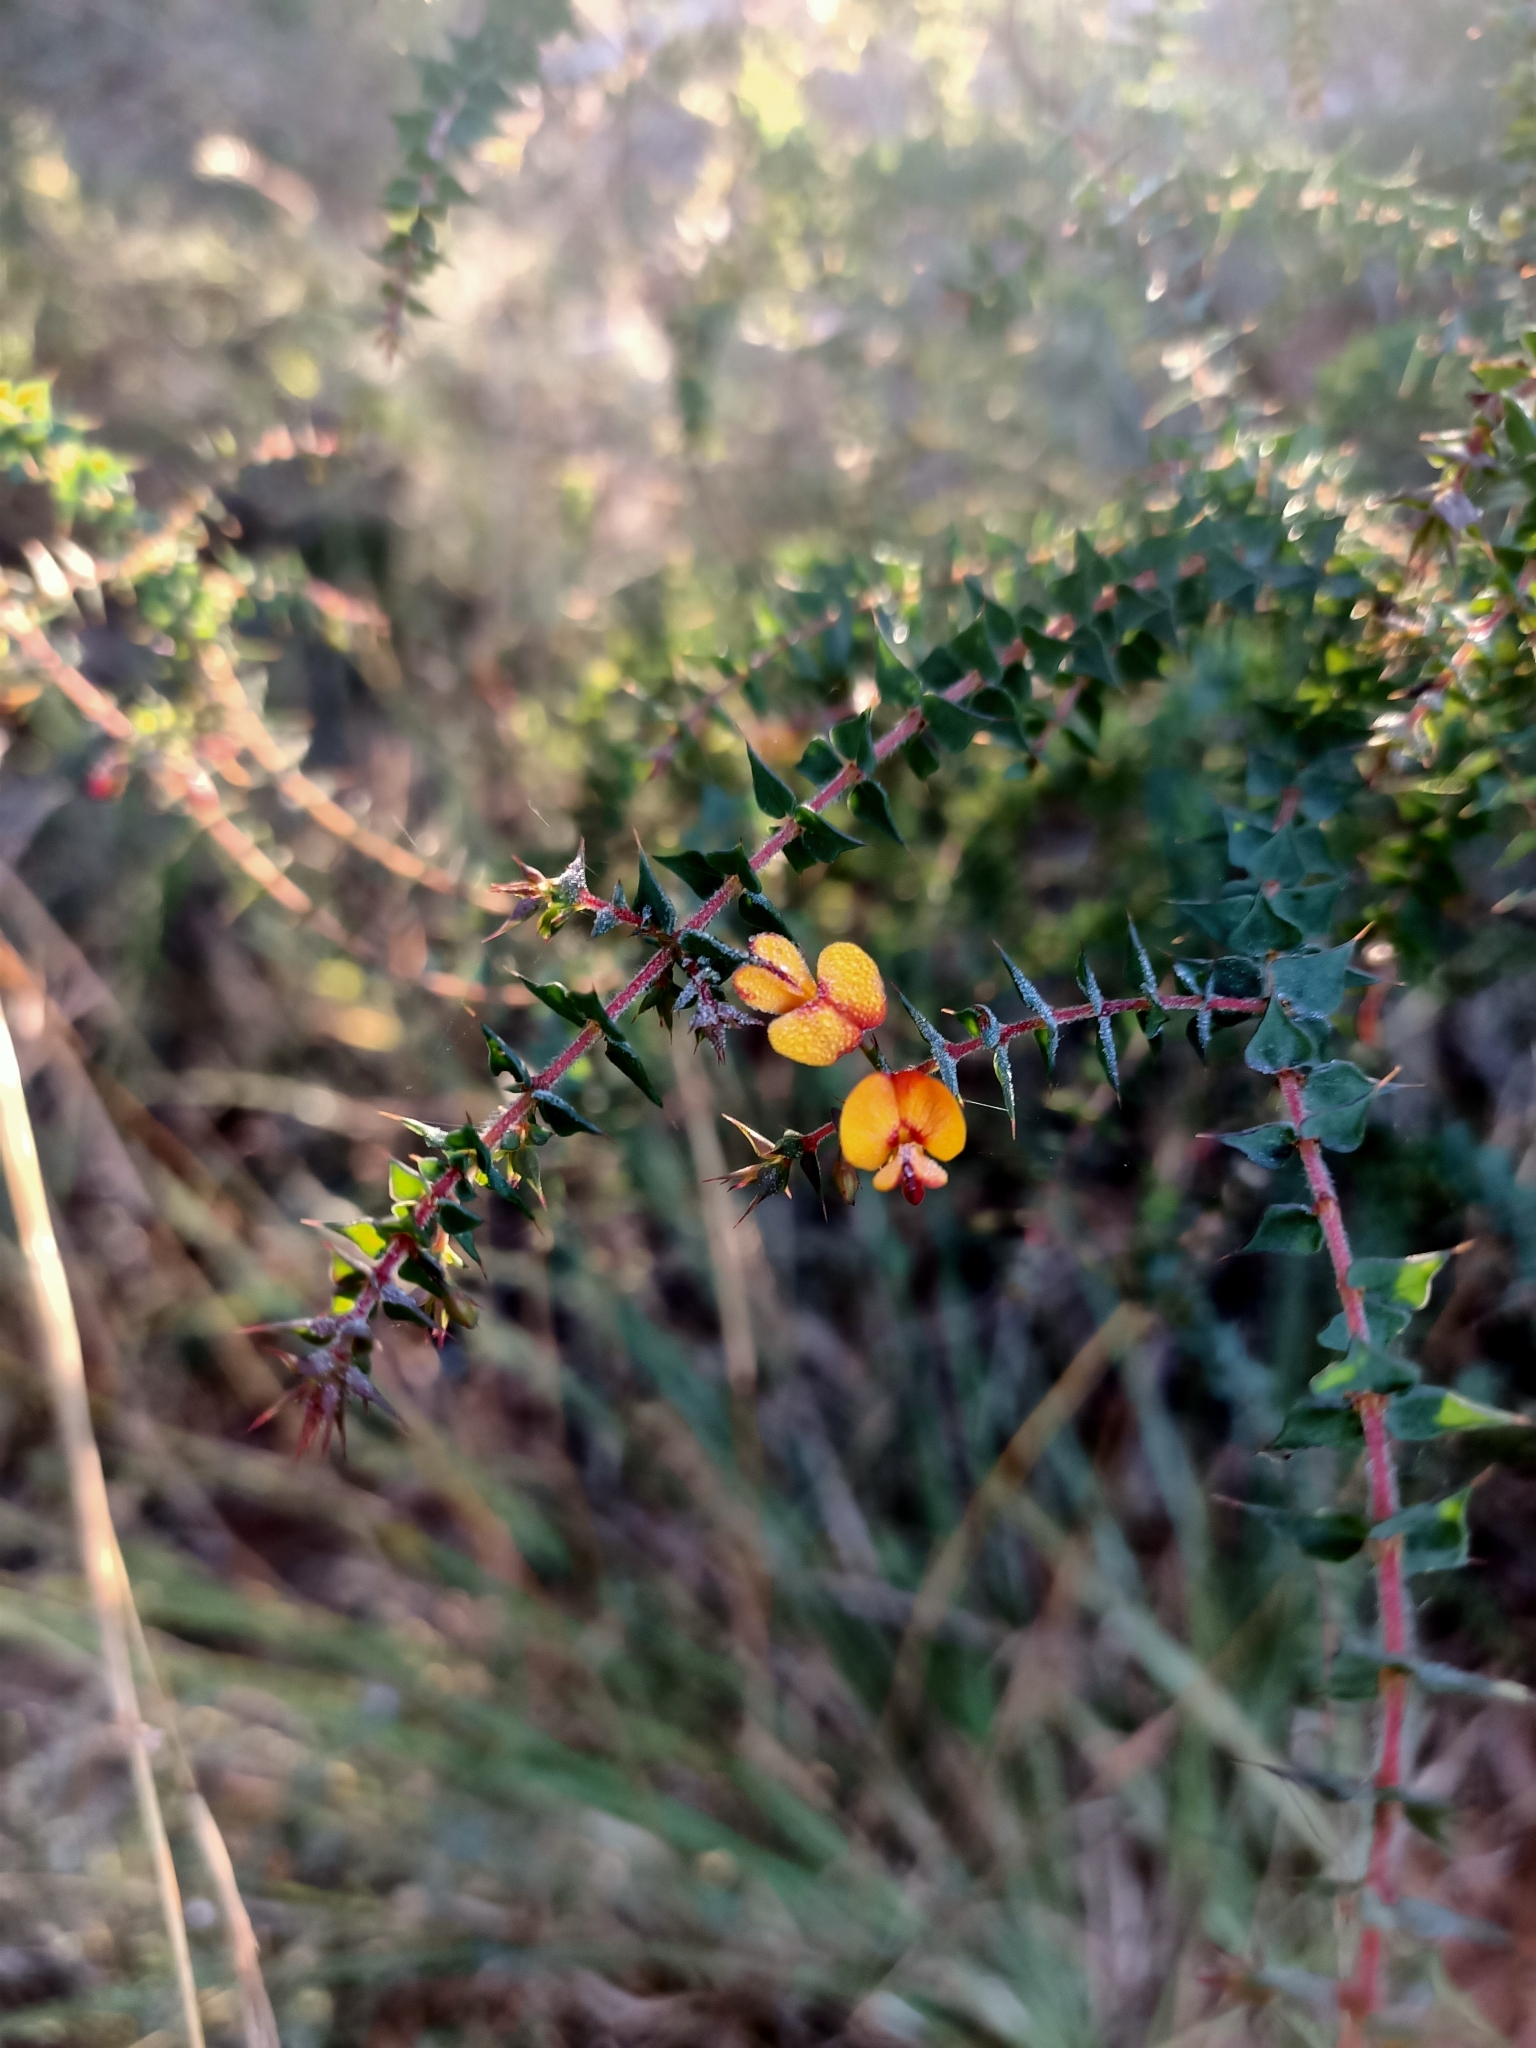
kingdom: Plantae
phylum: Tracheophyta
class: Magnoliopsida
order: Fabales
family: Fabaceae
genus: Pultenaea
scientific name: Pultenaea spinosa
